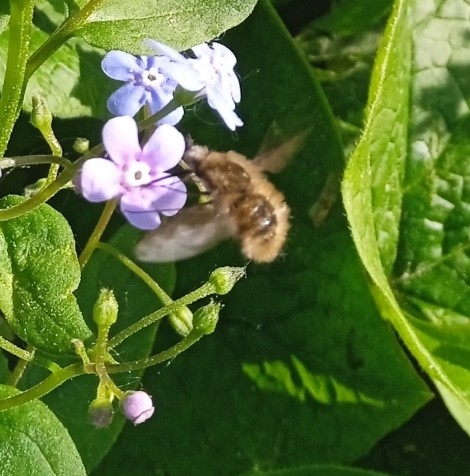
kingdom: Animalia
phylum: Arthropoda
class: Insecta
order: Diptera
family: Bombyliidae
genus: Bombylius
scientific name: Bombylius major
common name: Bee fly
